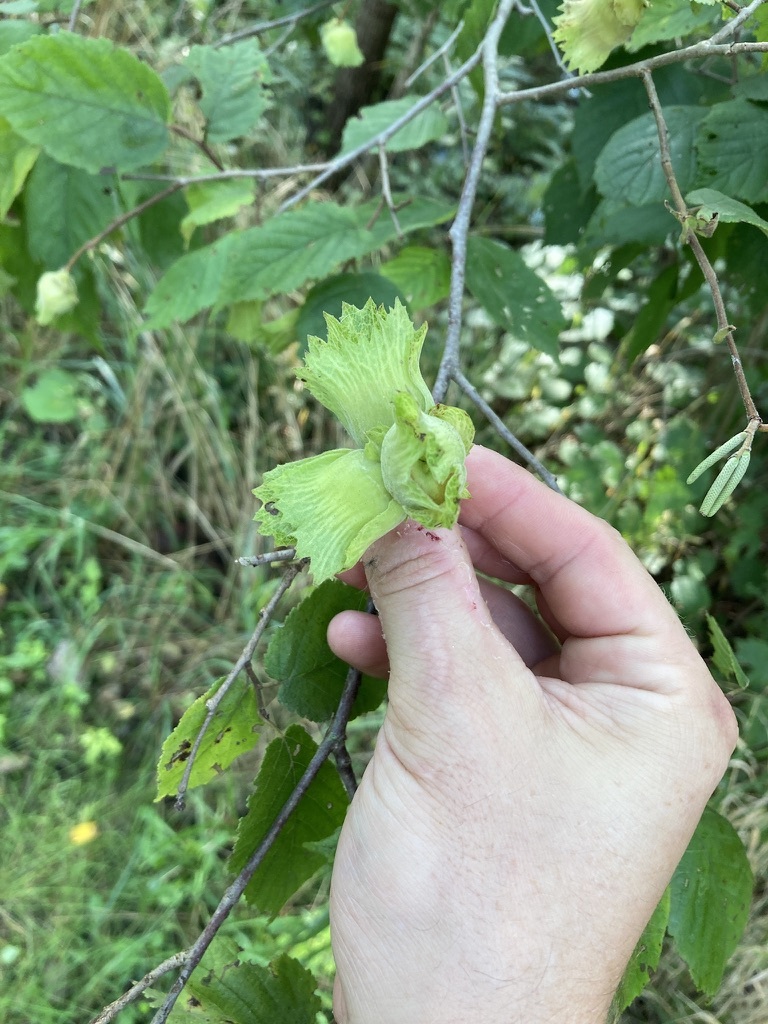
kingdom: Plantae
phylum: Tracheophyta
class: Magnoliopsida
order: Fagales
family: Betulaceae
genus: Corylus
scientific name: Corylus americana
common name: American hazel
